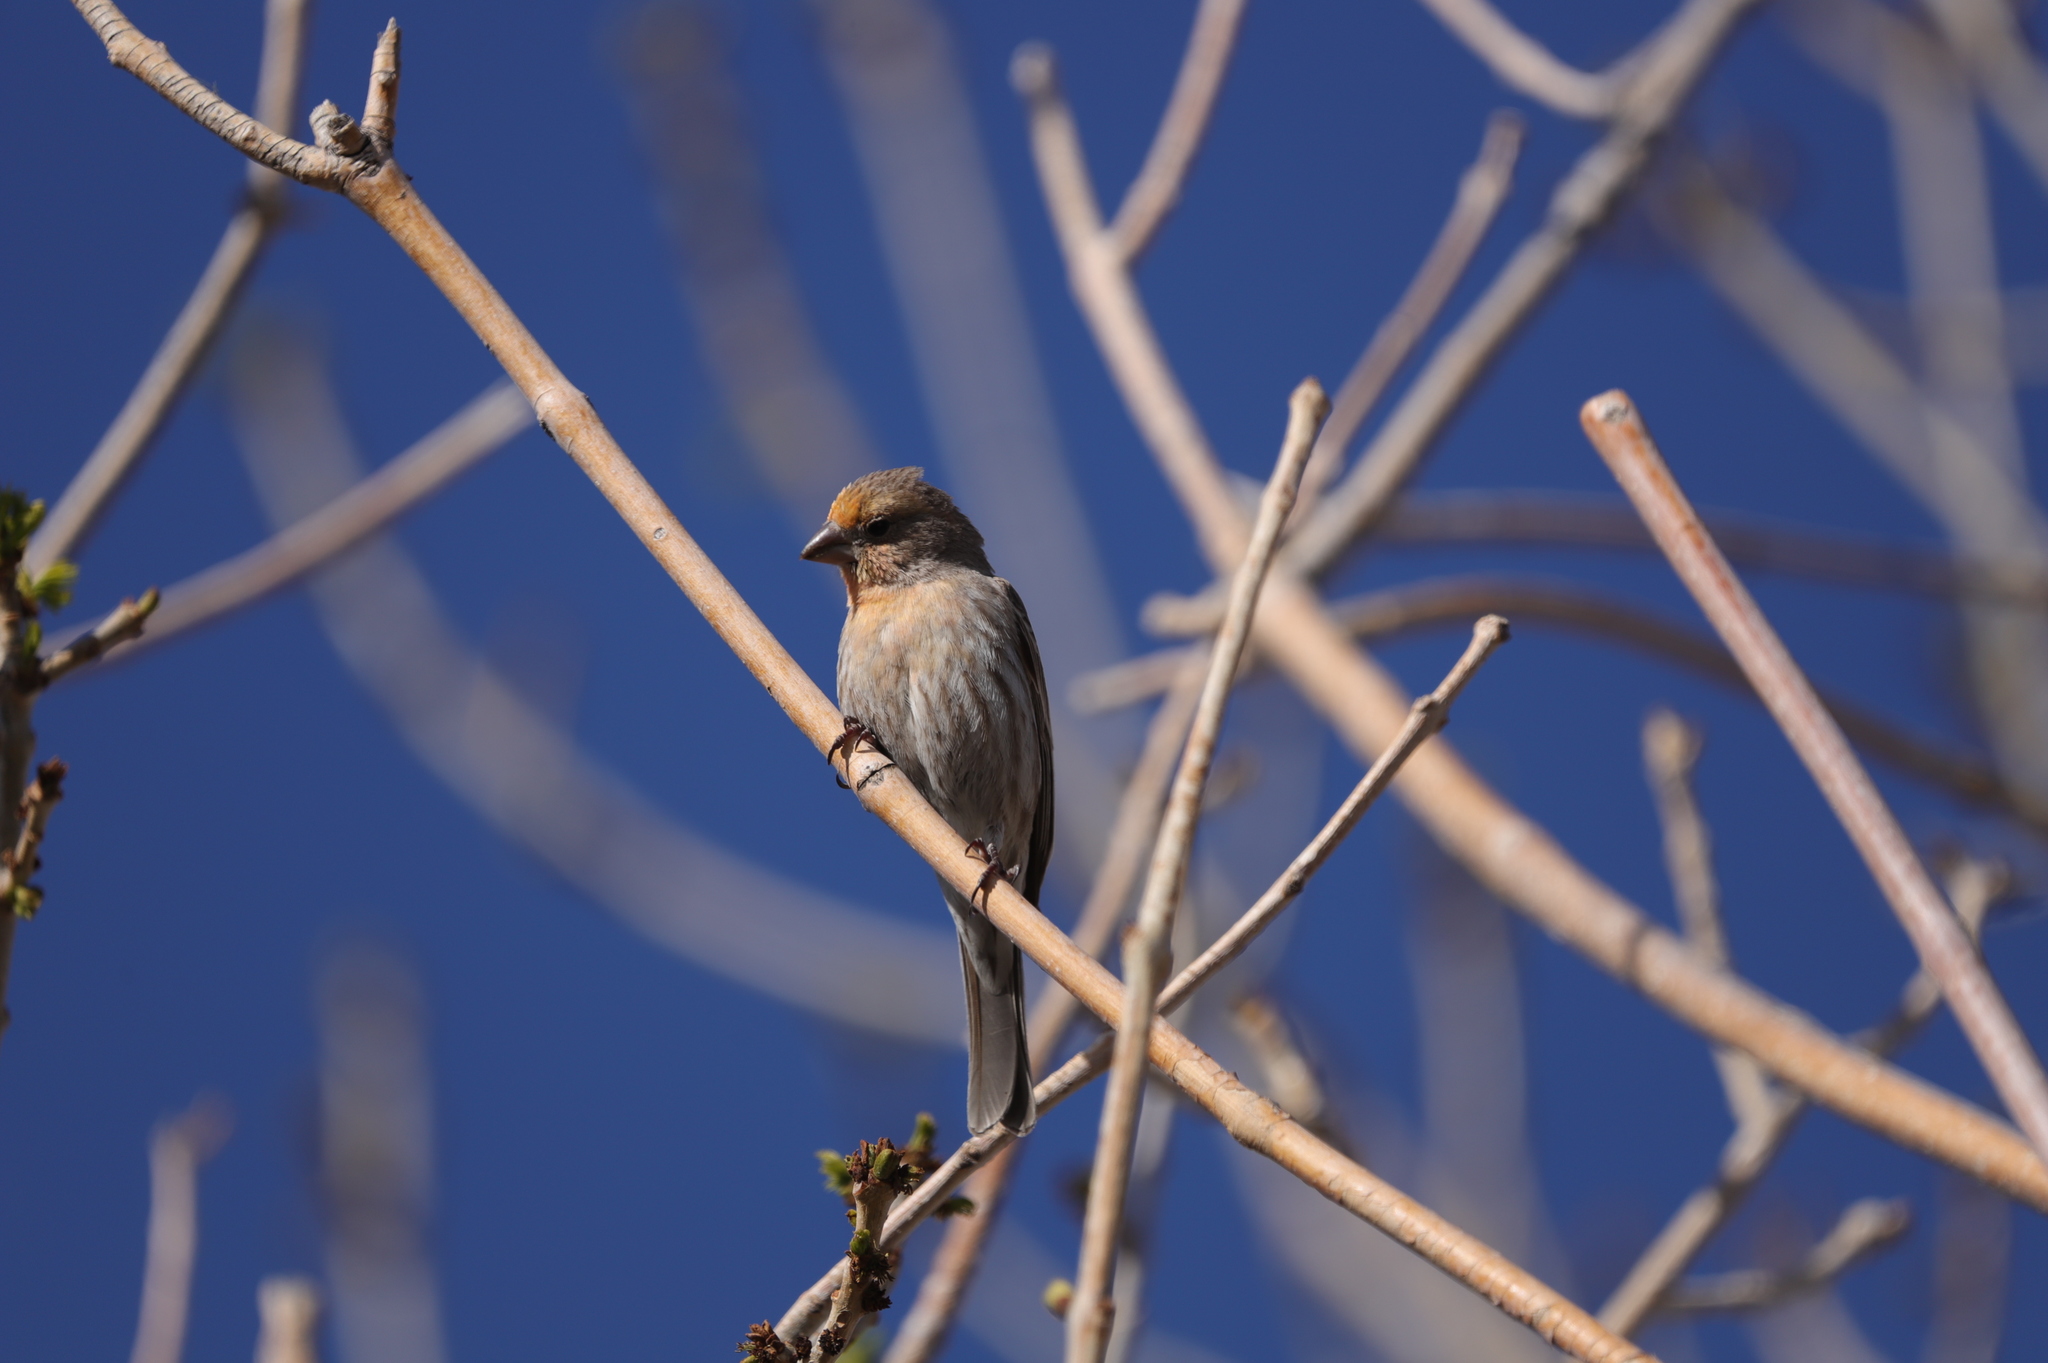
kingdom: Animalia
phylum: Chordata
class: Aves
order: Passeriformes
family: Fringillidae
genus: Haemorhous
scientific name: Haemorhous mexicanus
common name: House finch
